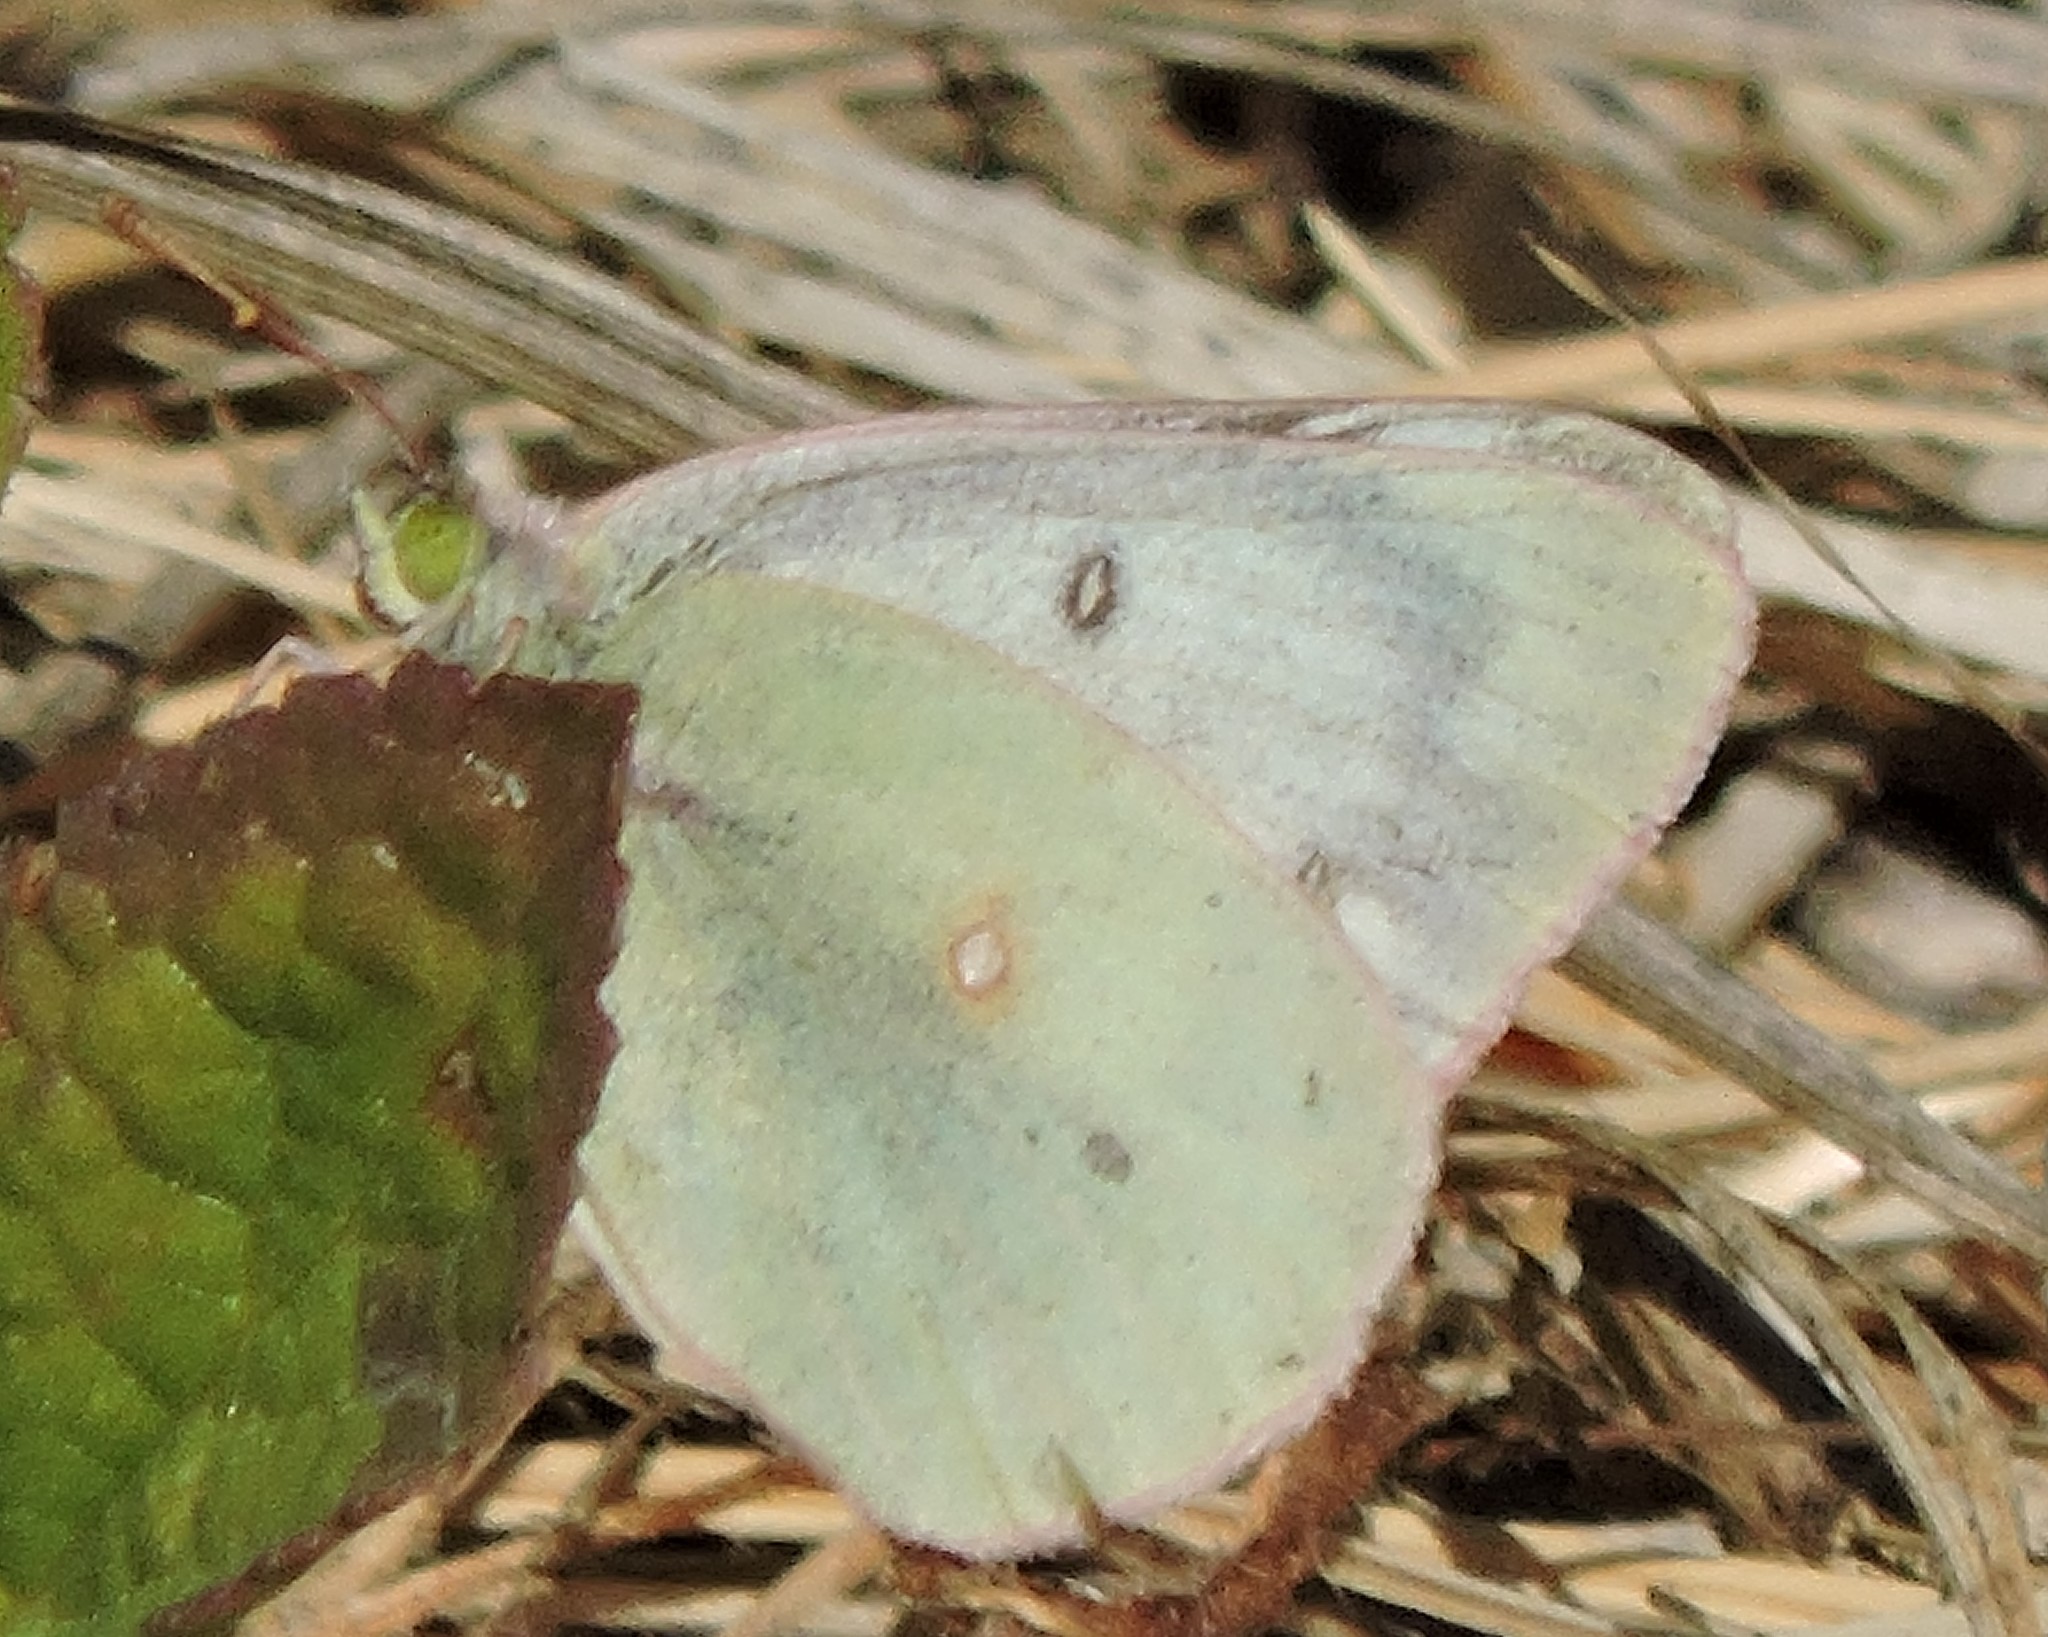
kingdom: Animalia
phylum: Arthropoda
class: Insecta
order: Lepidoptera
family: Pieridae
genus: Pieris
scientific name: Pieris rapae
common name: Small white
